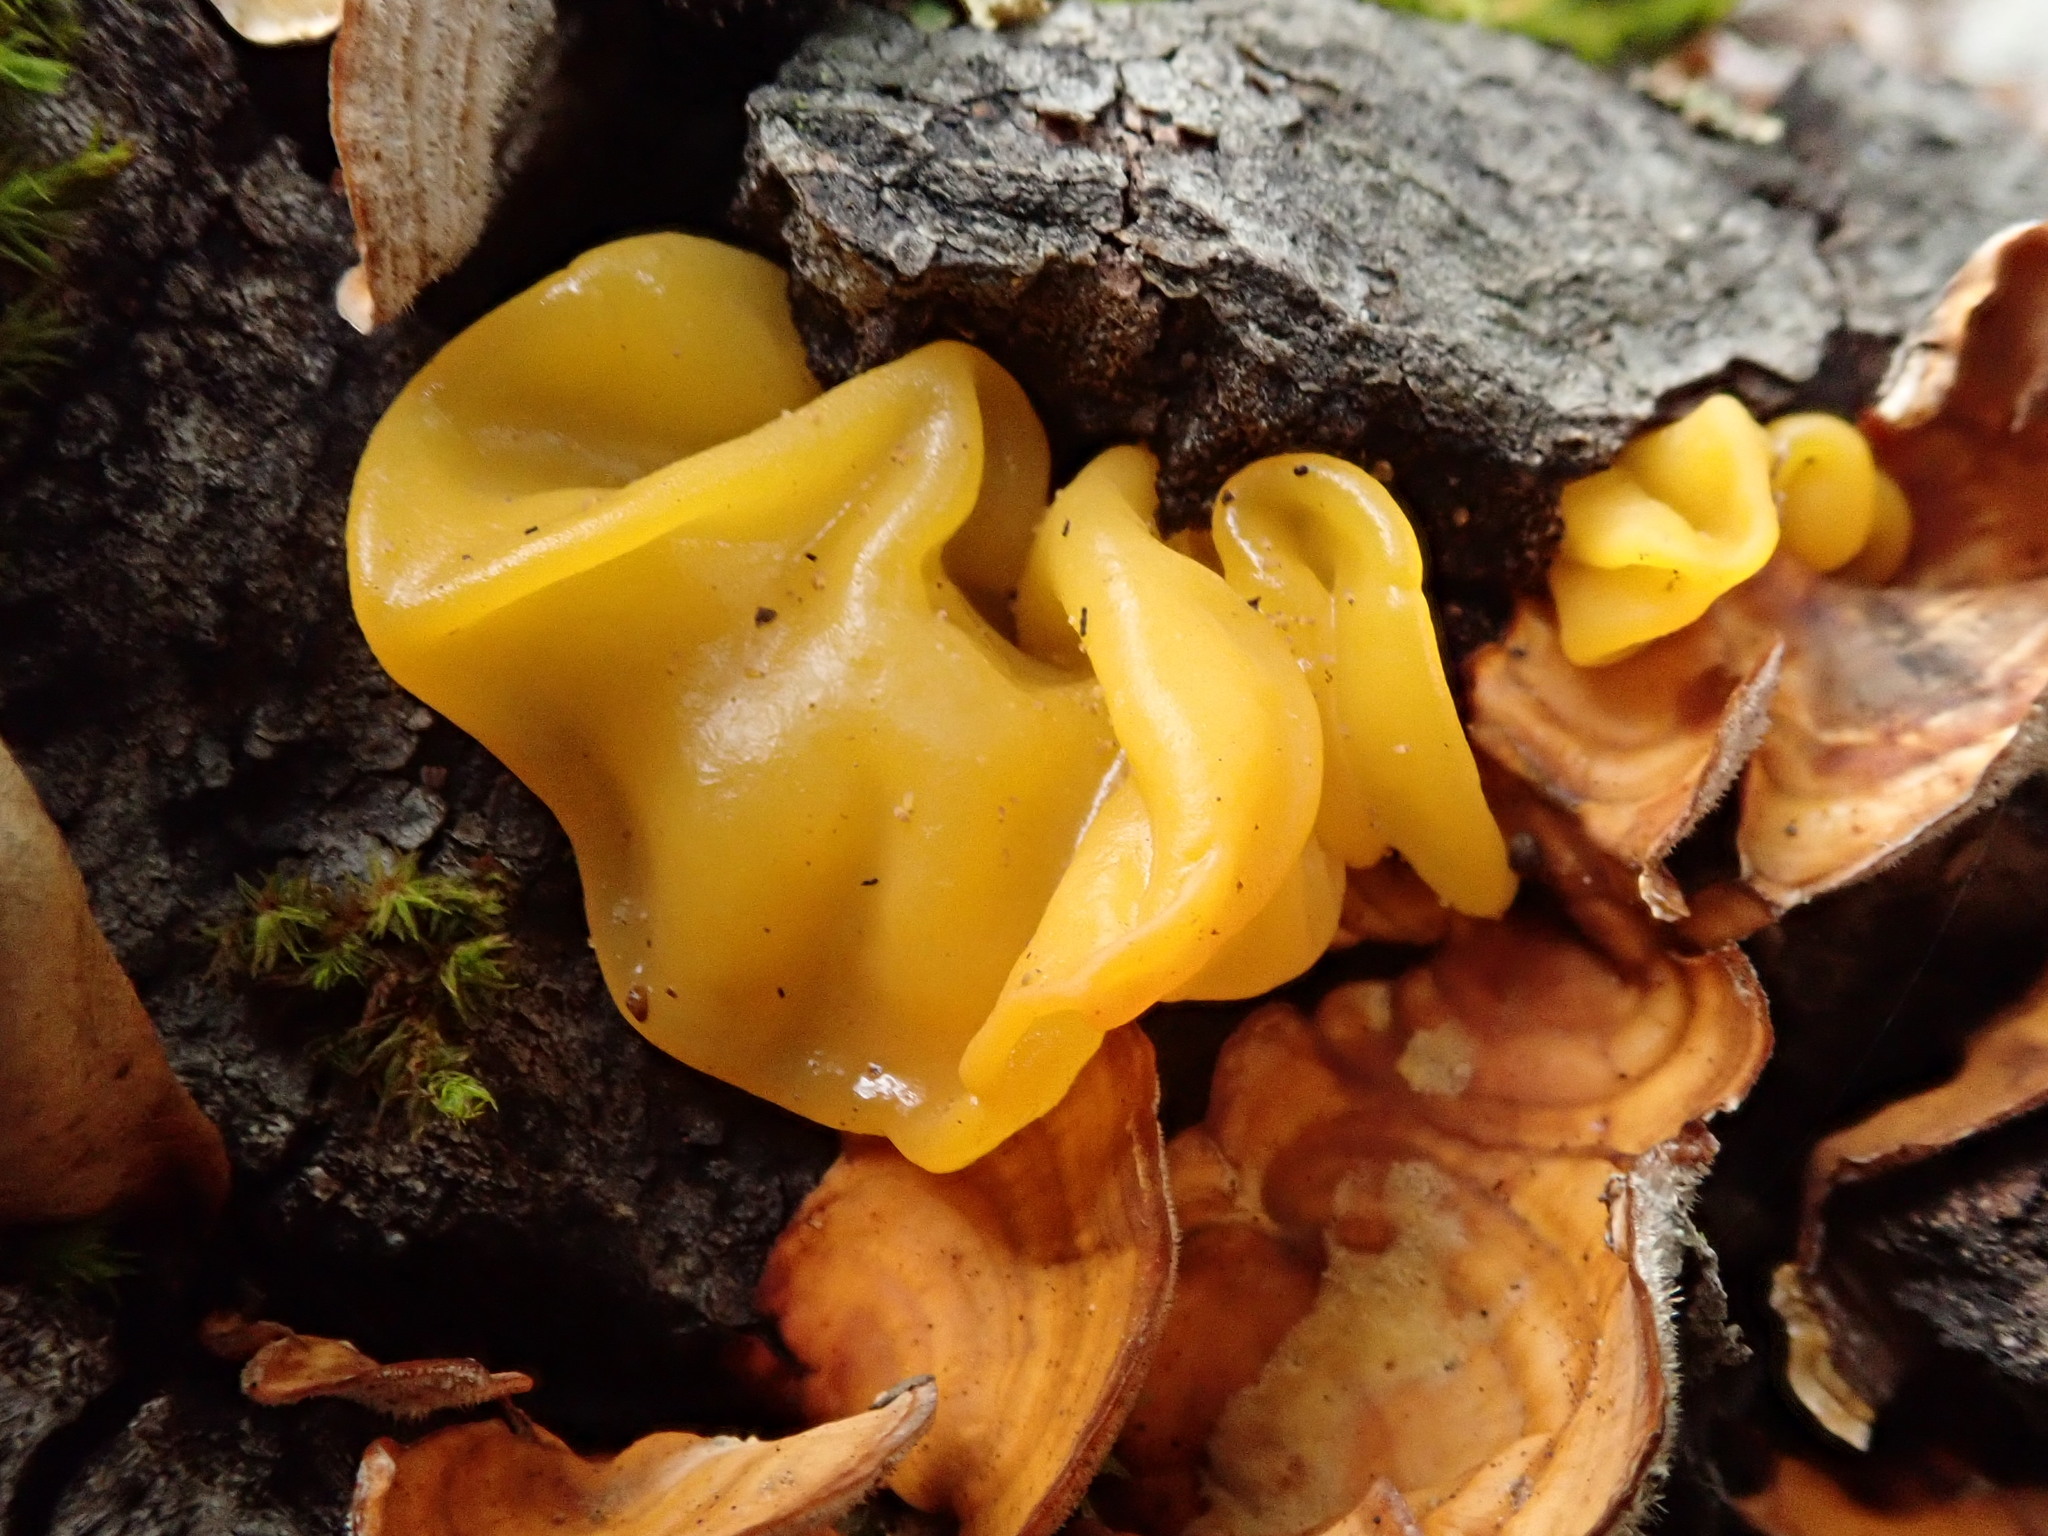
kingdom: Fungi
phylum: Basidiomycota
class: Tremellomycetes
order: Tremellales
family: Tremellaceae
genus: Tremella
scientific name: Tremella mesenterica
